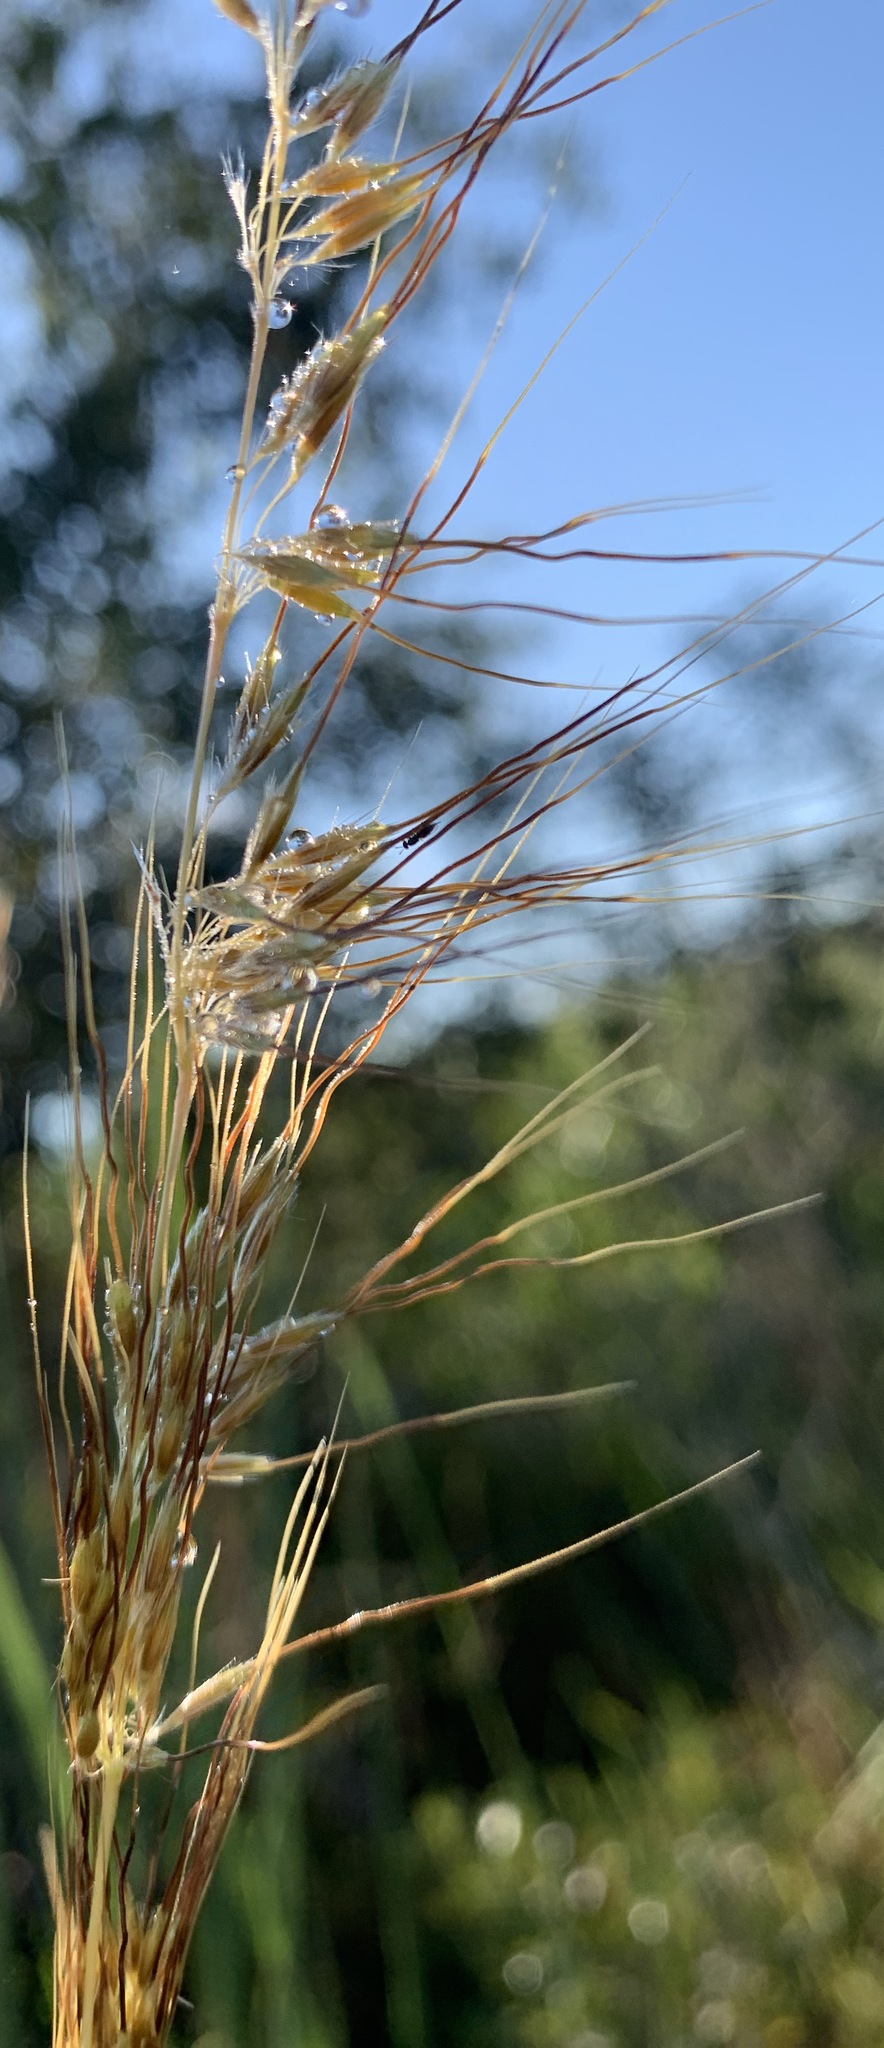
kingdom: Plantae
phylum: Tracheophyta
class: Liliopsida
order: Poales
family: Poaceae
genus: Sorghastrum
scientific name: Sorghastrum secundum
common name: Lopsided indian grass
